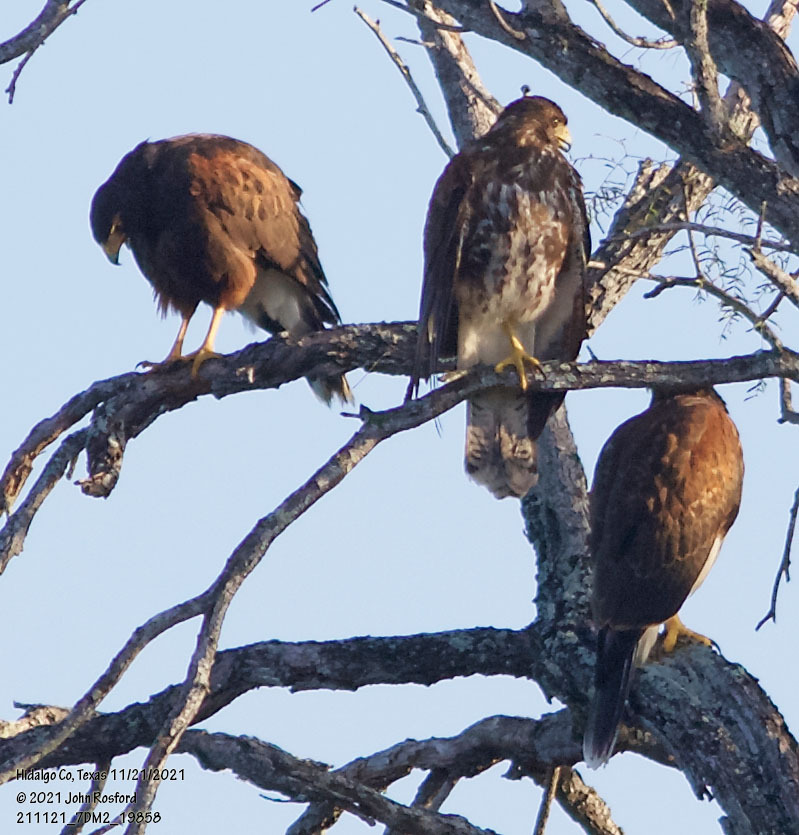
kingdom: Animalia
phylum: Chordata
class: Aves
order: Accipitriformes
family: Accipitridae
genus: Parabuteo
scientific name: Parabuteo unicinctus
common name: Harris's hawk
